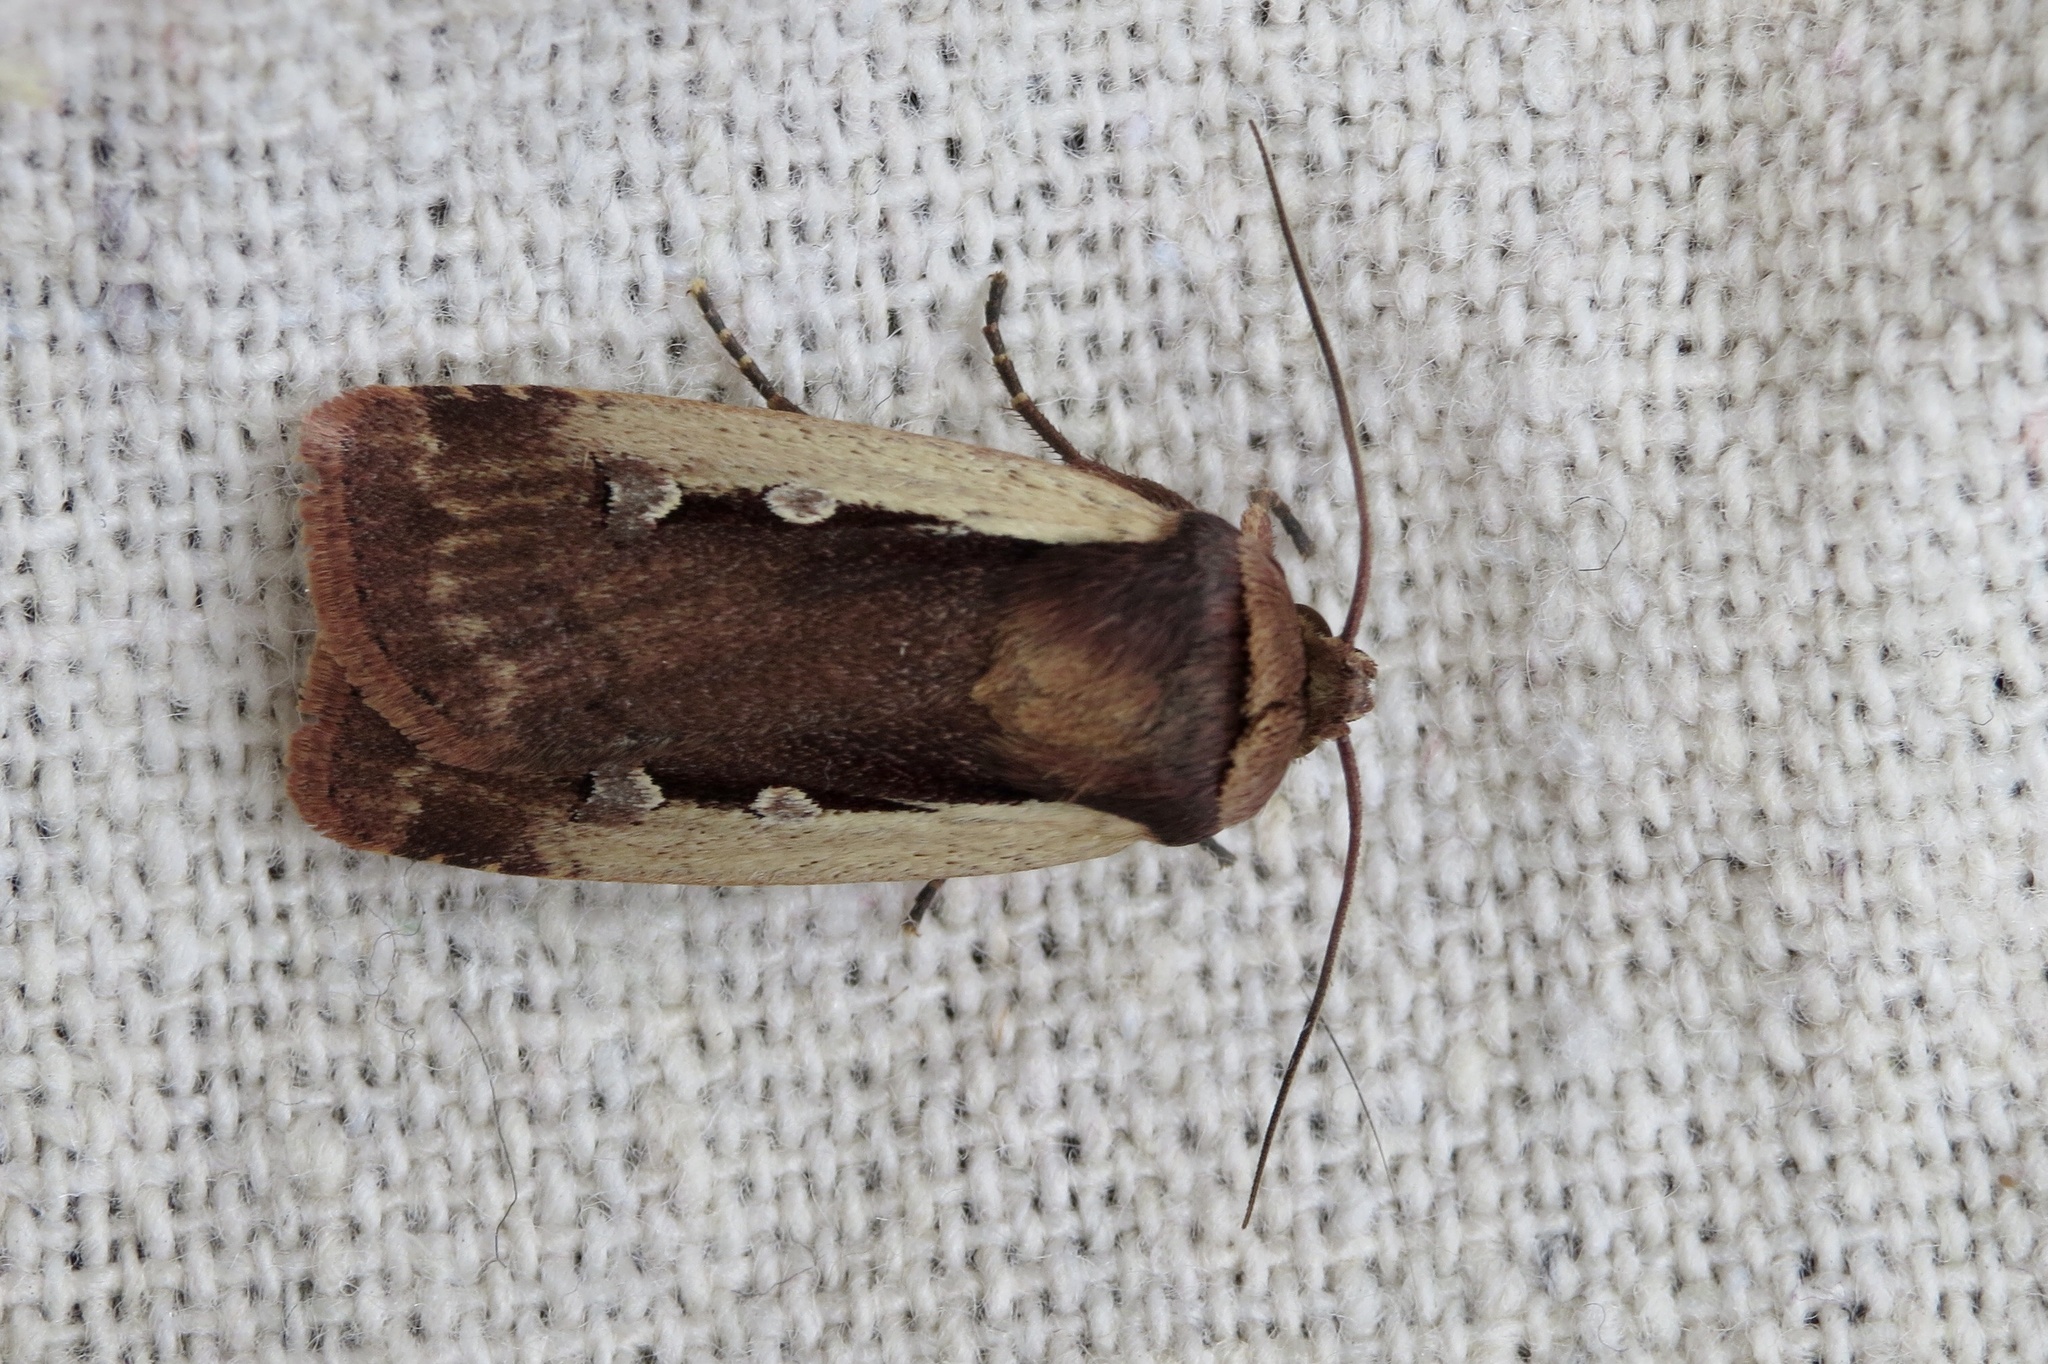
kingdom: Animalia
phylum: Arthropoda
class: Insecta
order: Lepidoptera
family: Noctuidae
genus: Ochropleura
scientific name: Ochropleura plecta
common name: Flame shoulder
